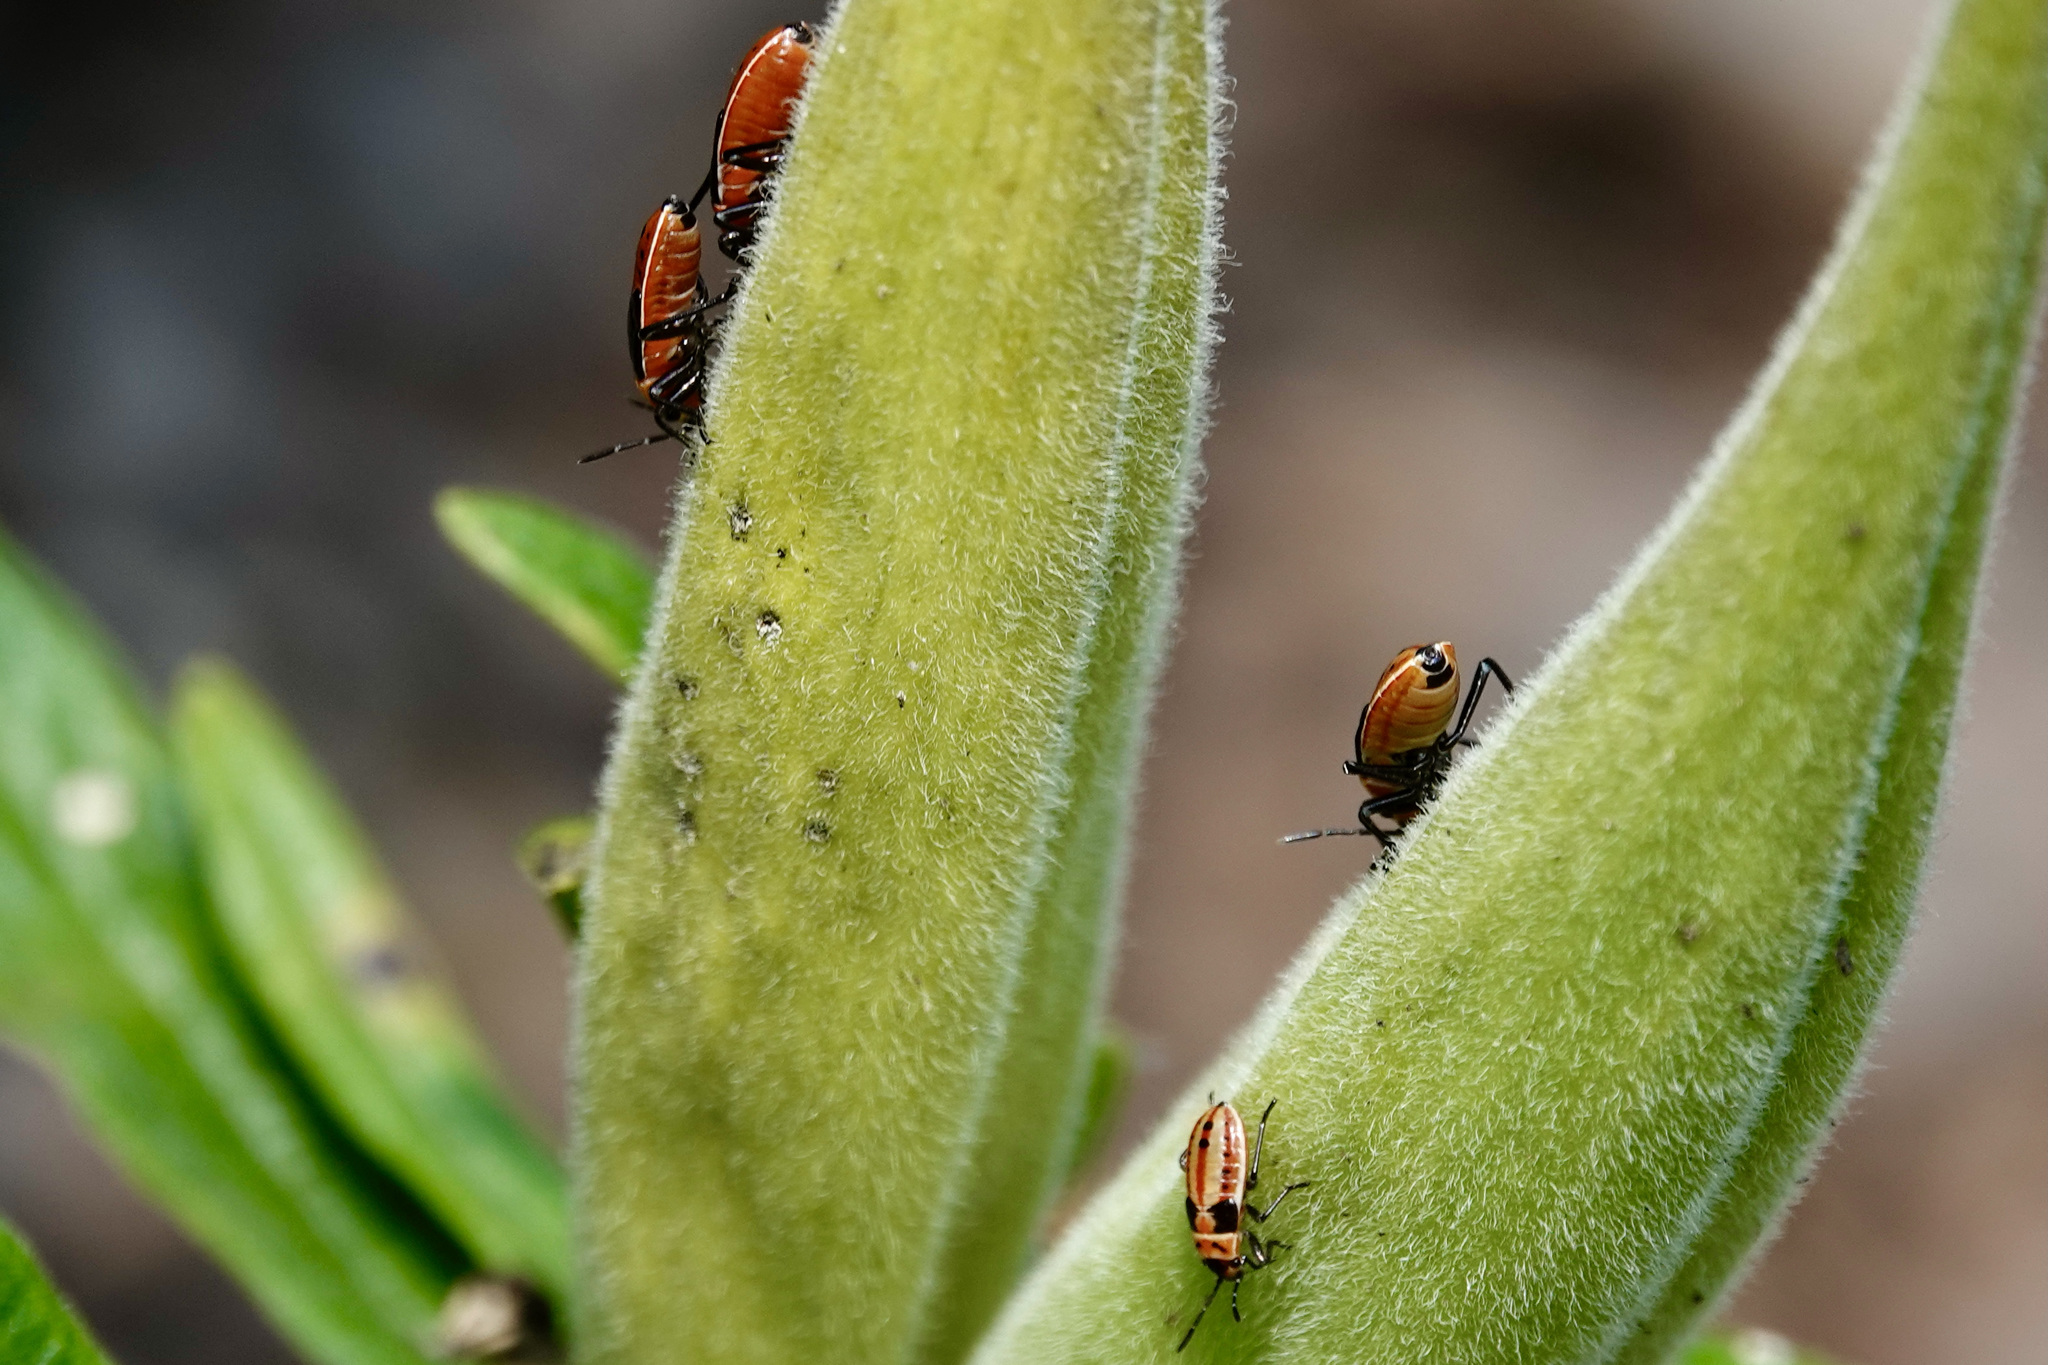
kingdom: Animalia
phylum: Arthropoda
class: Insecta
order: Hemiptera
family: Lygaeidae
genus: Lygaeus
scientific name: Lygaeus kalmii
